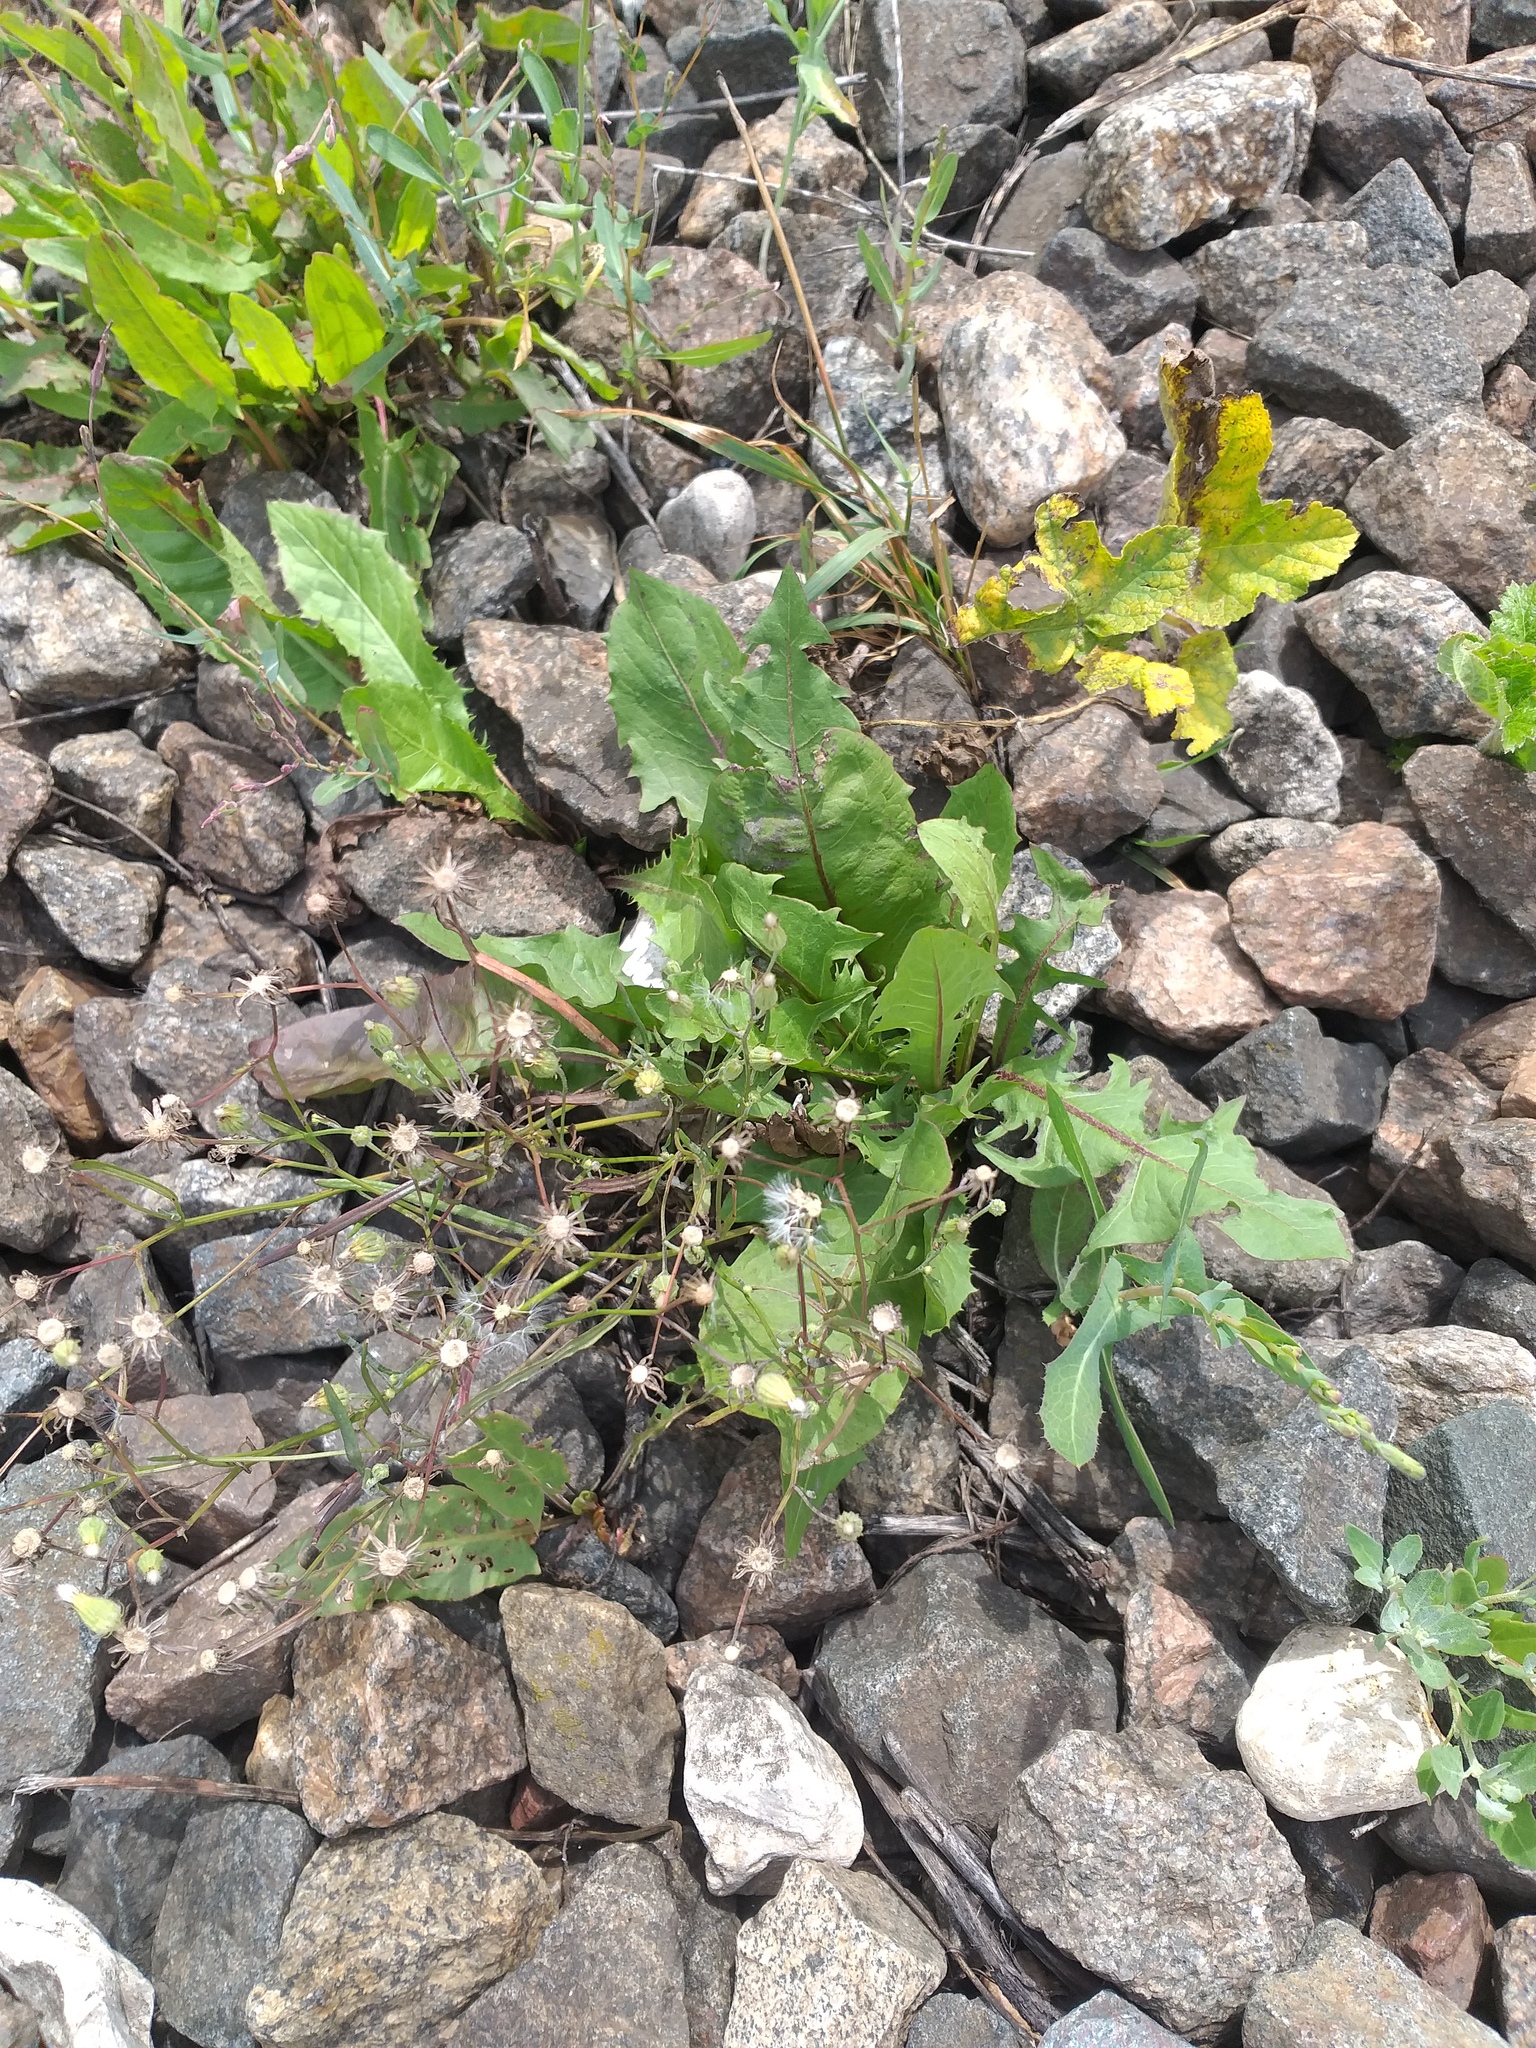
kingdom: Plantae
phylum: Tracheophyta
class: Magnoliopsida
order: Asterales
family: Asteraceae
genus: Crepis
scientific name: Crepis tectorum
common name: Narrow-leaved hawk's-beard
